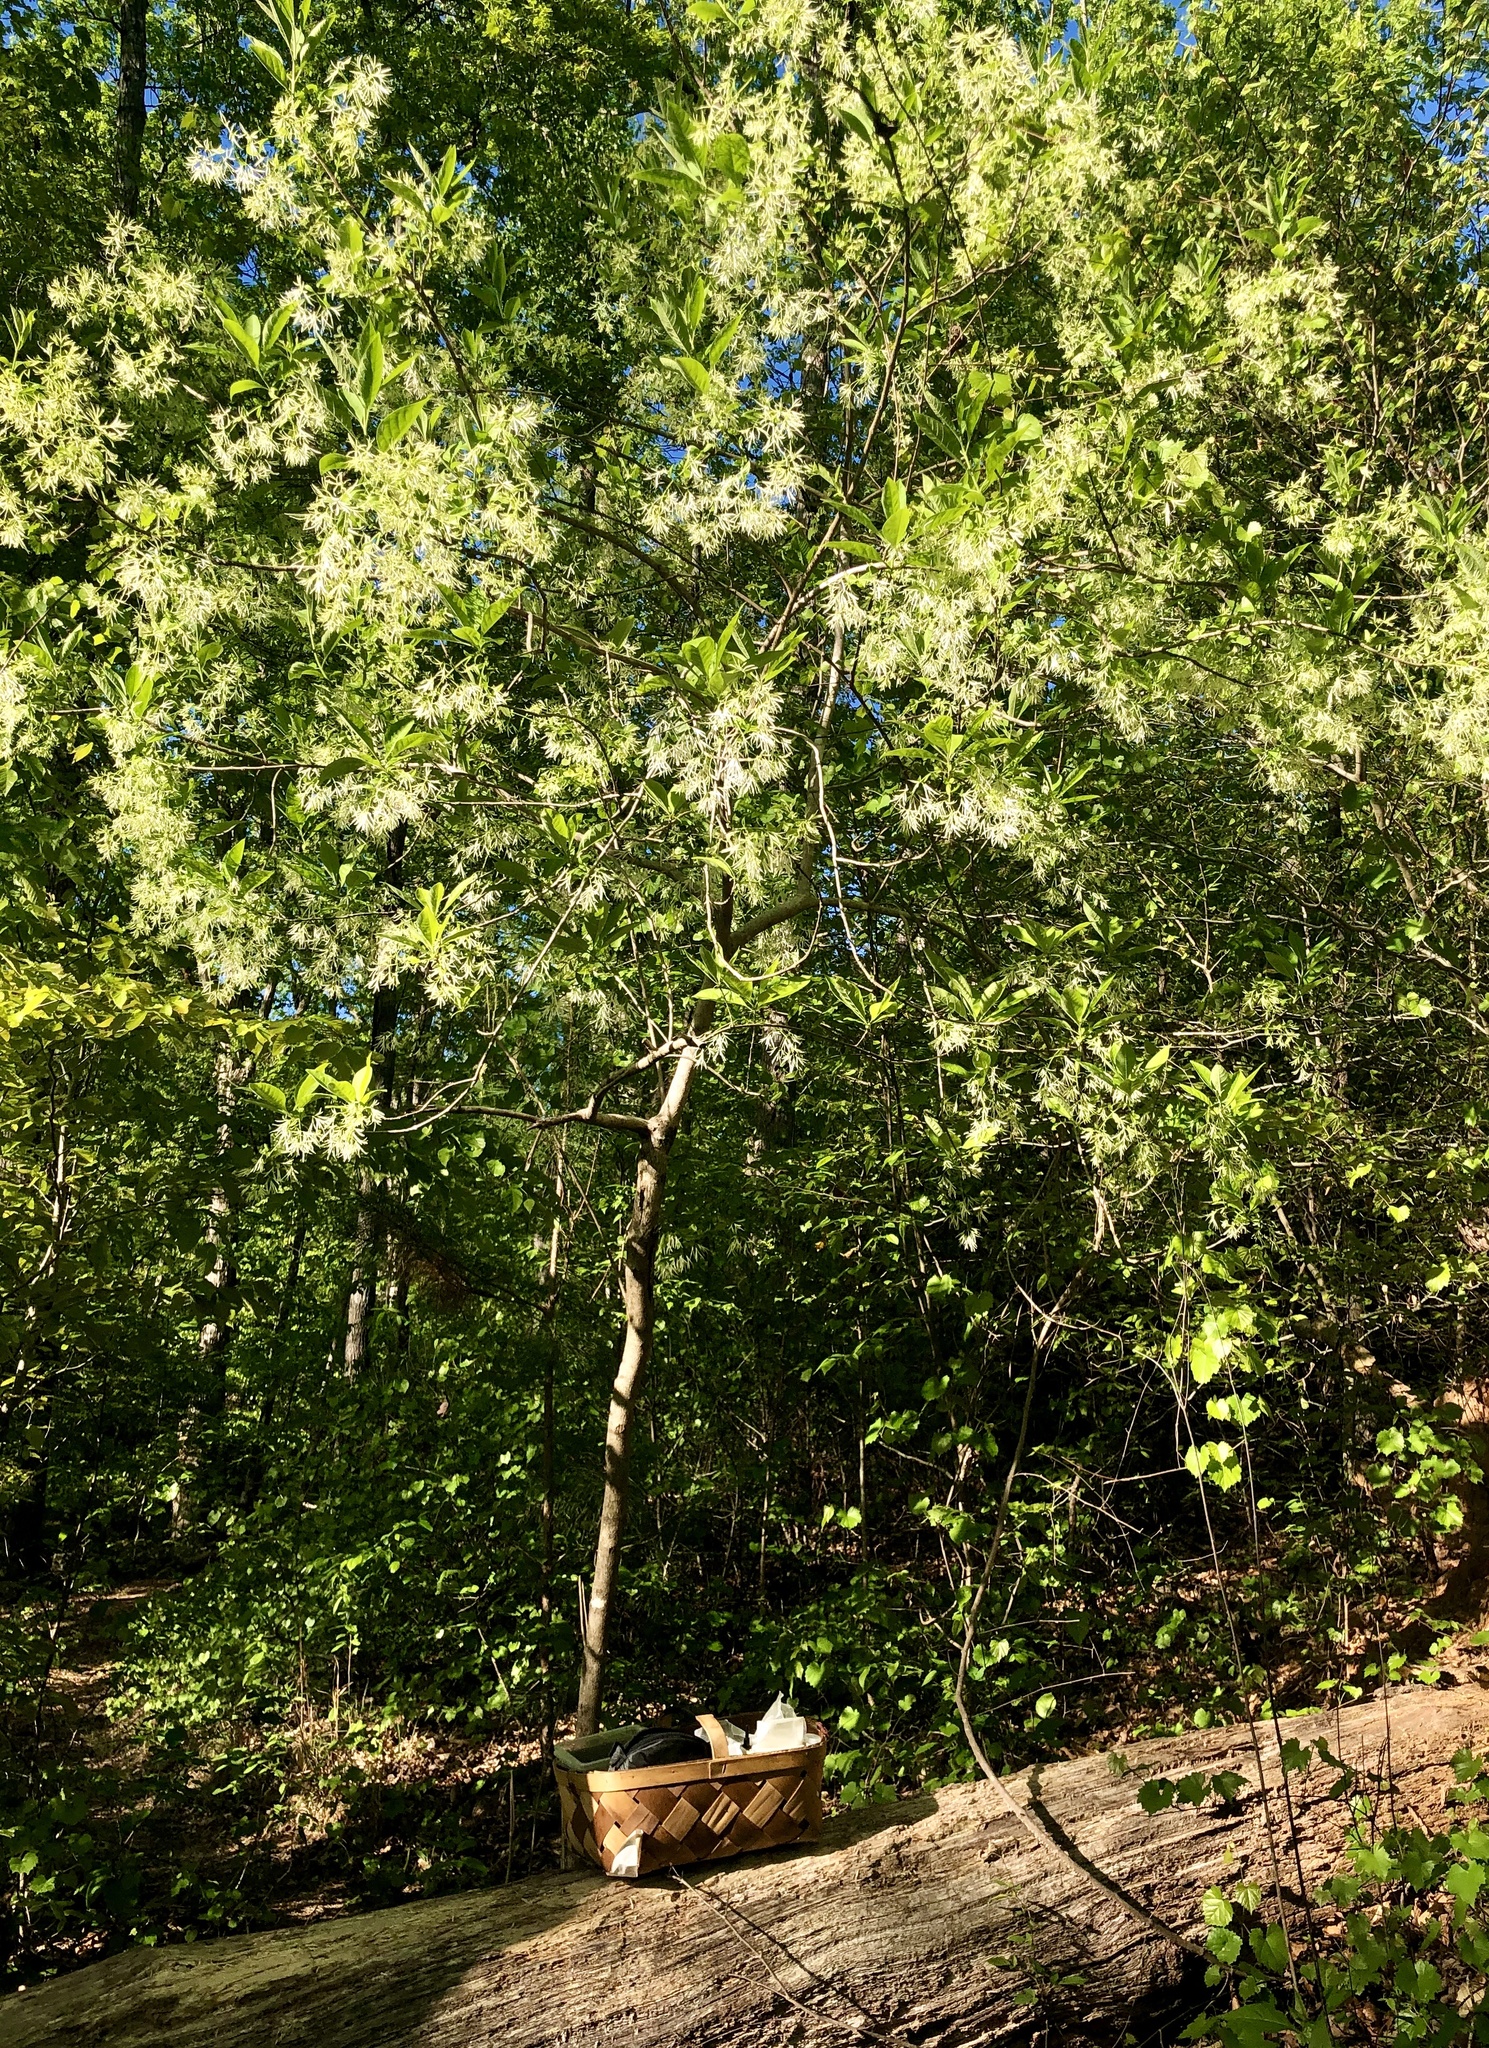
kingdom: Plantae
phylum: Tracheophyta
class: Magnoliopsida
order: Lamiales
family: Oleaceae
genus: Chionanthus
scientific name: Chionanthus virginicus
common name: American fringetree
